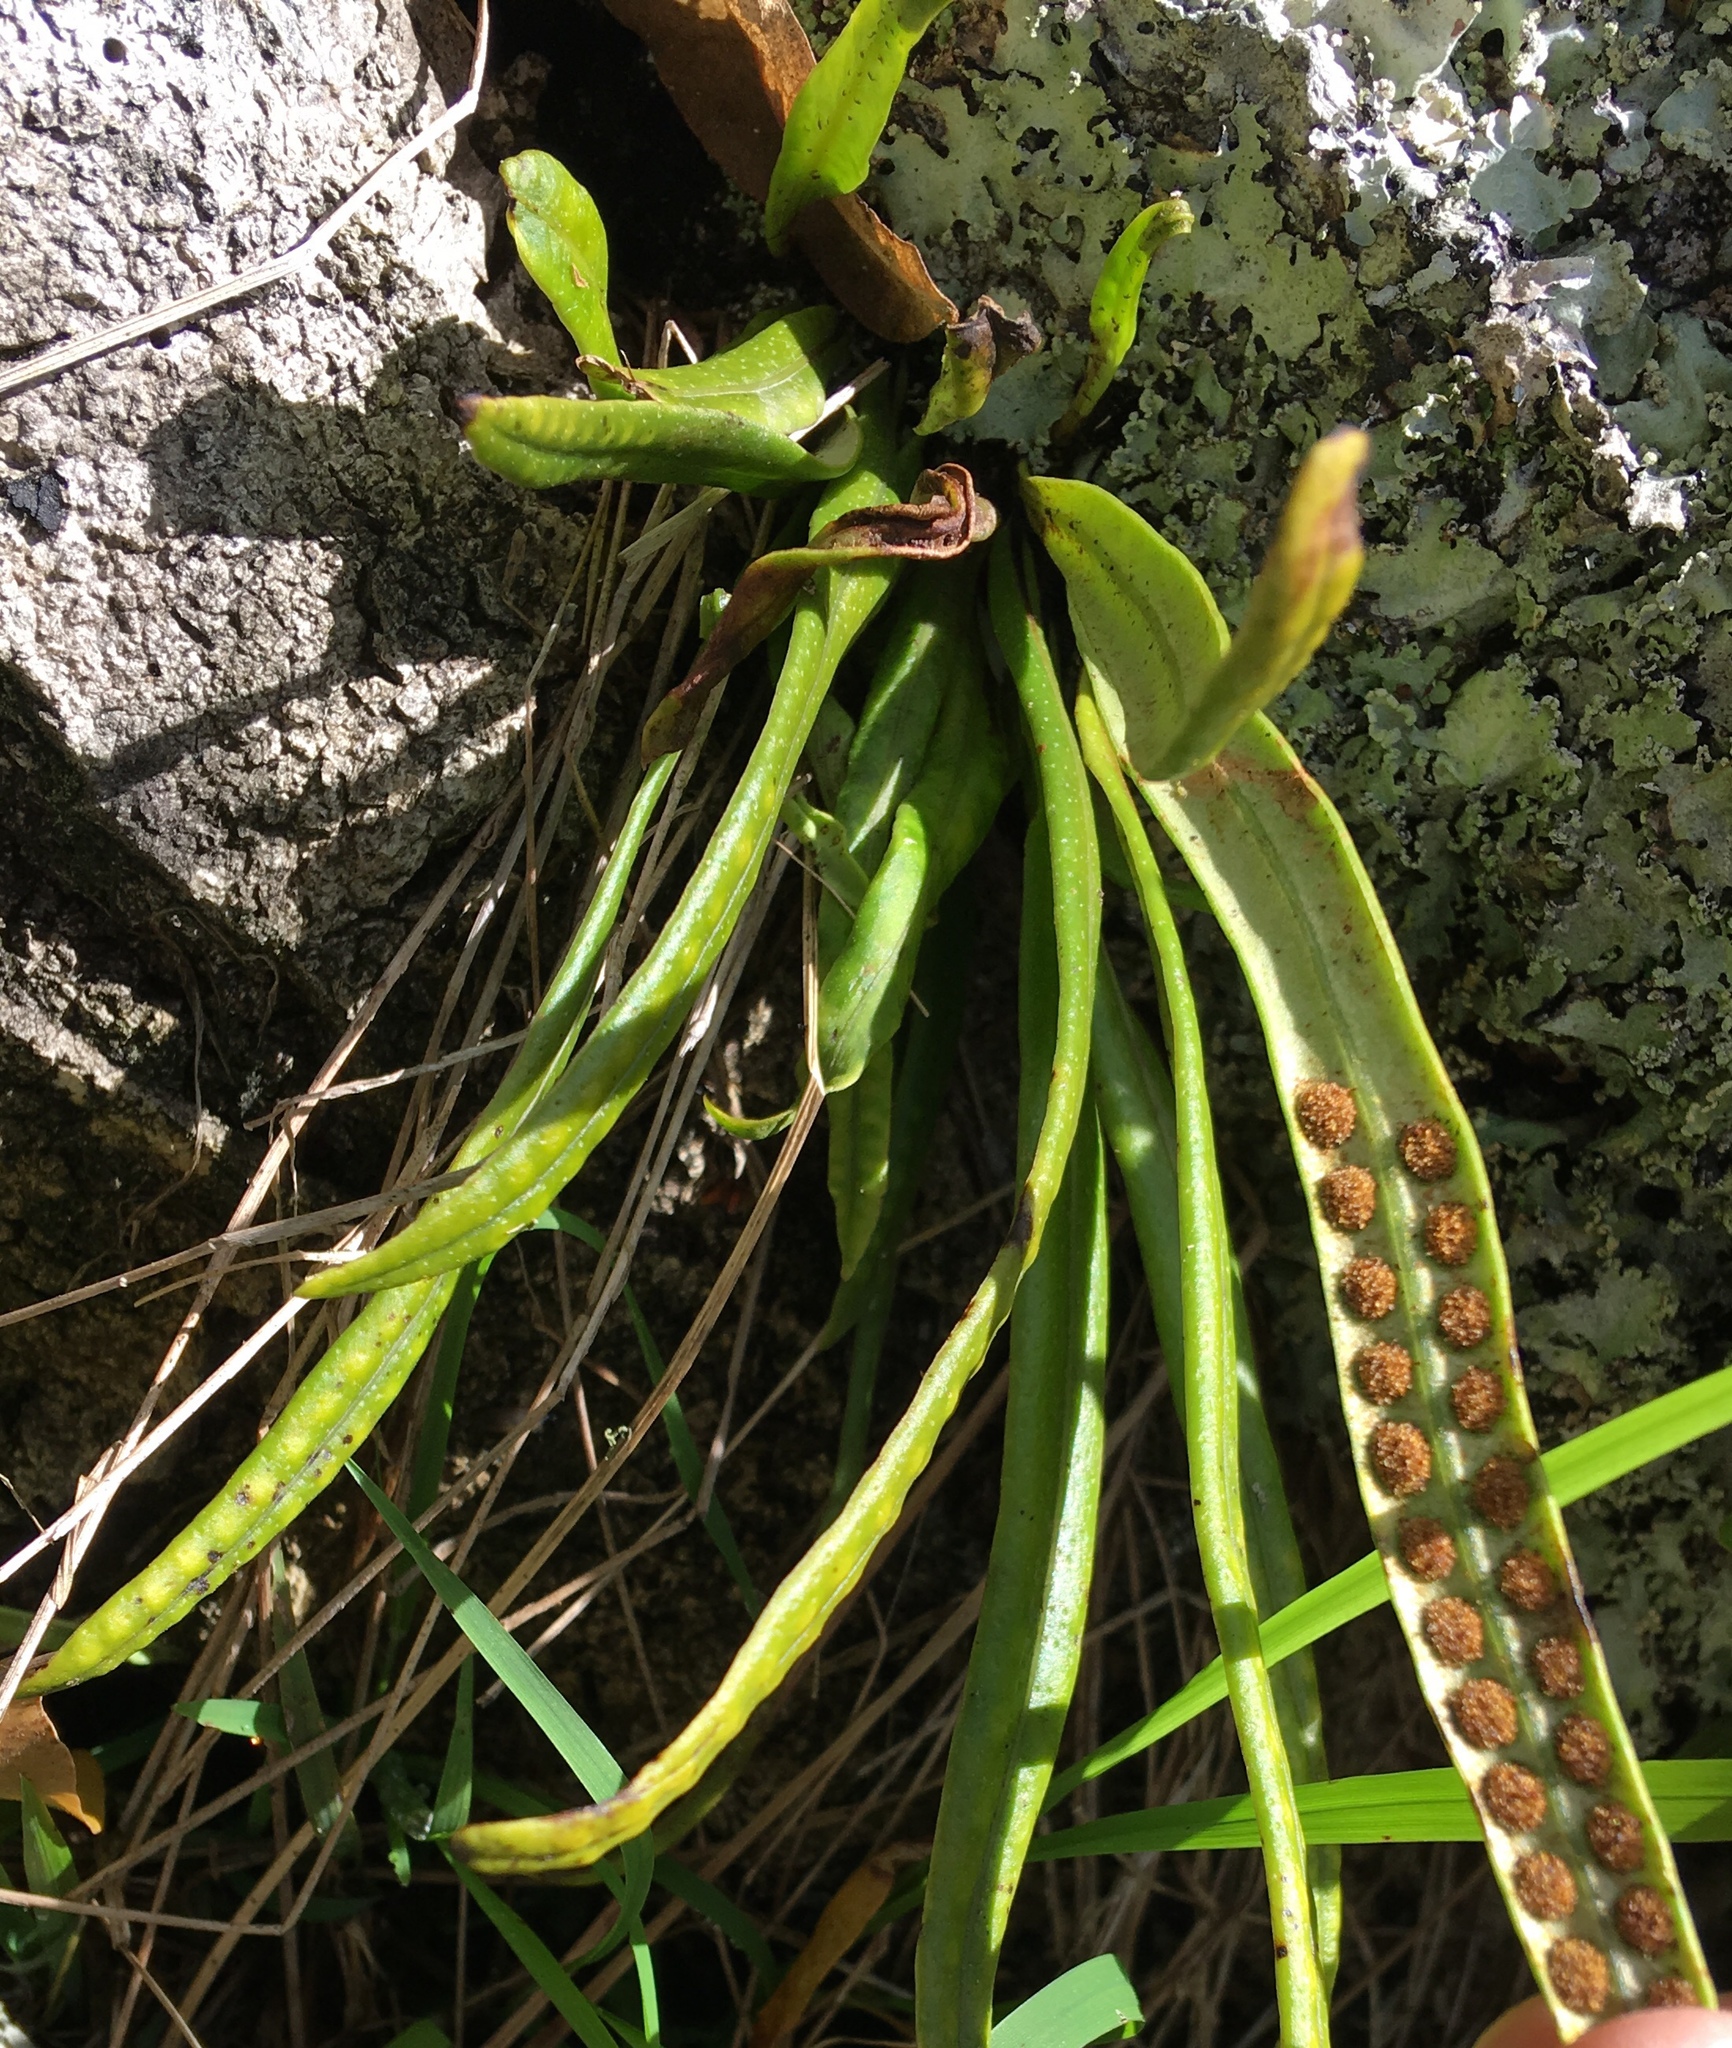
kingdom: Plantae
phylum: Tracheophyta
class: Polypodiopsida
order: Polypodiales
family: Polypodiaceae
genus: Lepisorus
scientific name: Lepisorus thunbergianus
